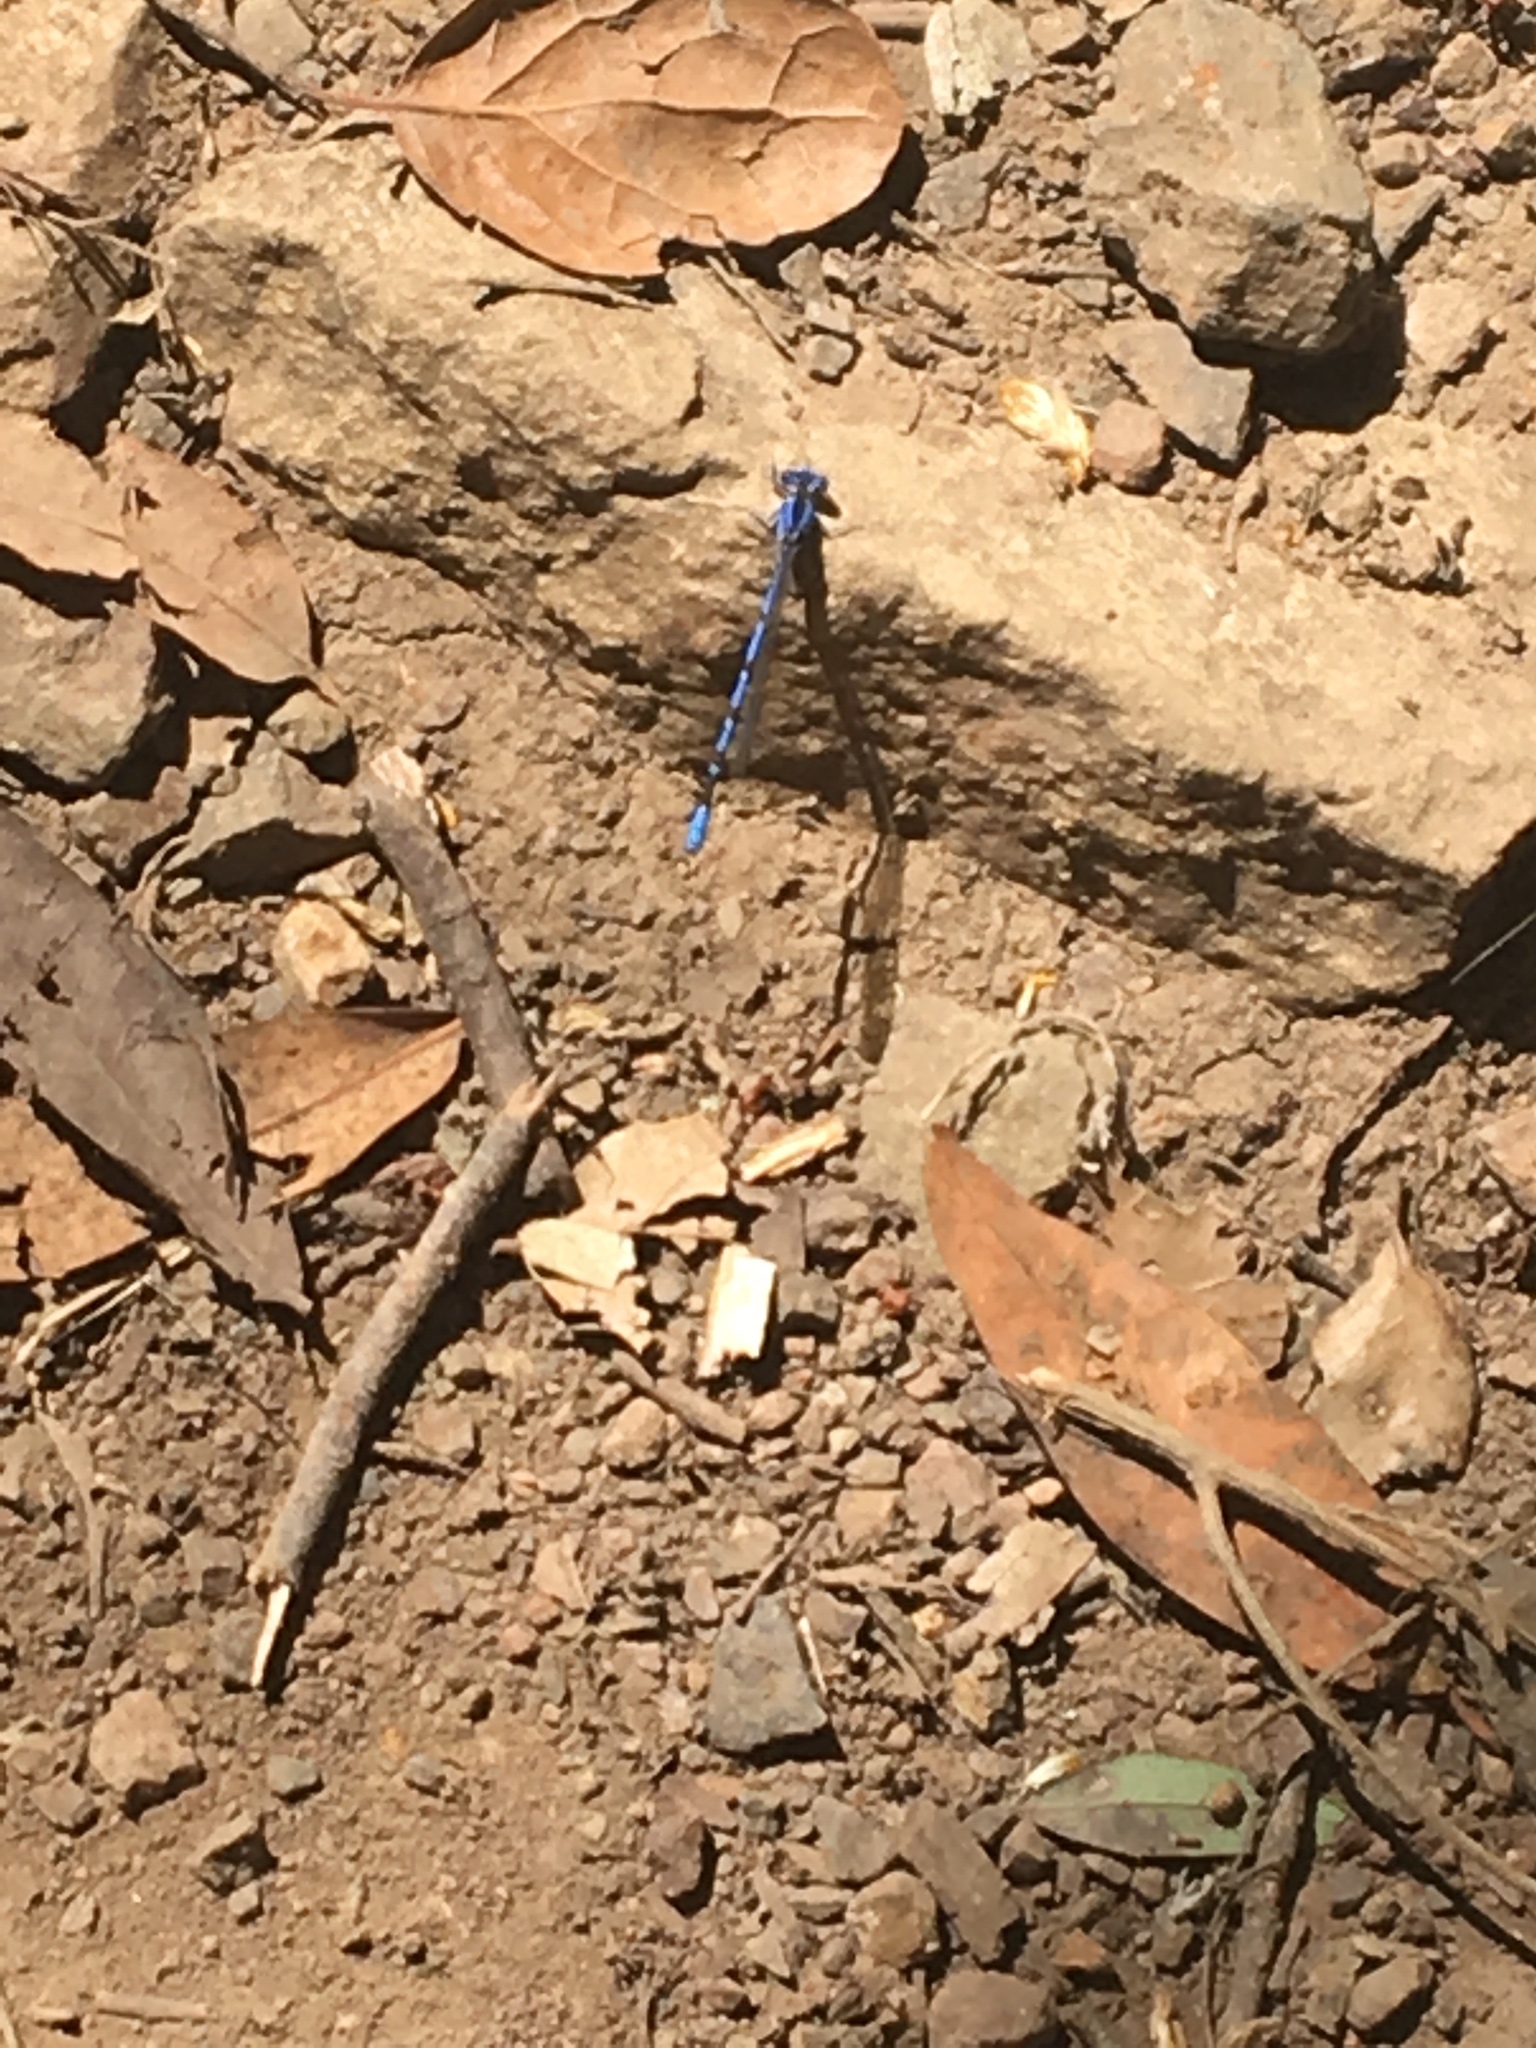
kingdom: Animalia
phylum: Arthropoda
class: Insecta
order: Odonata
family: Coenagrionidae
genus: Argia
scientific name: Argia vivida
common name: Vivid dancer
